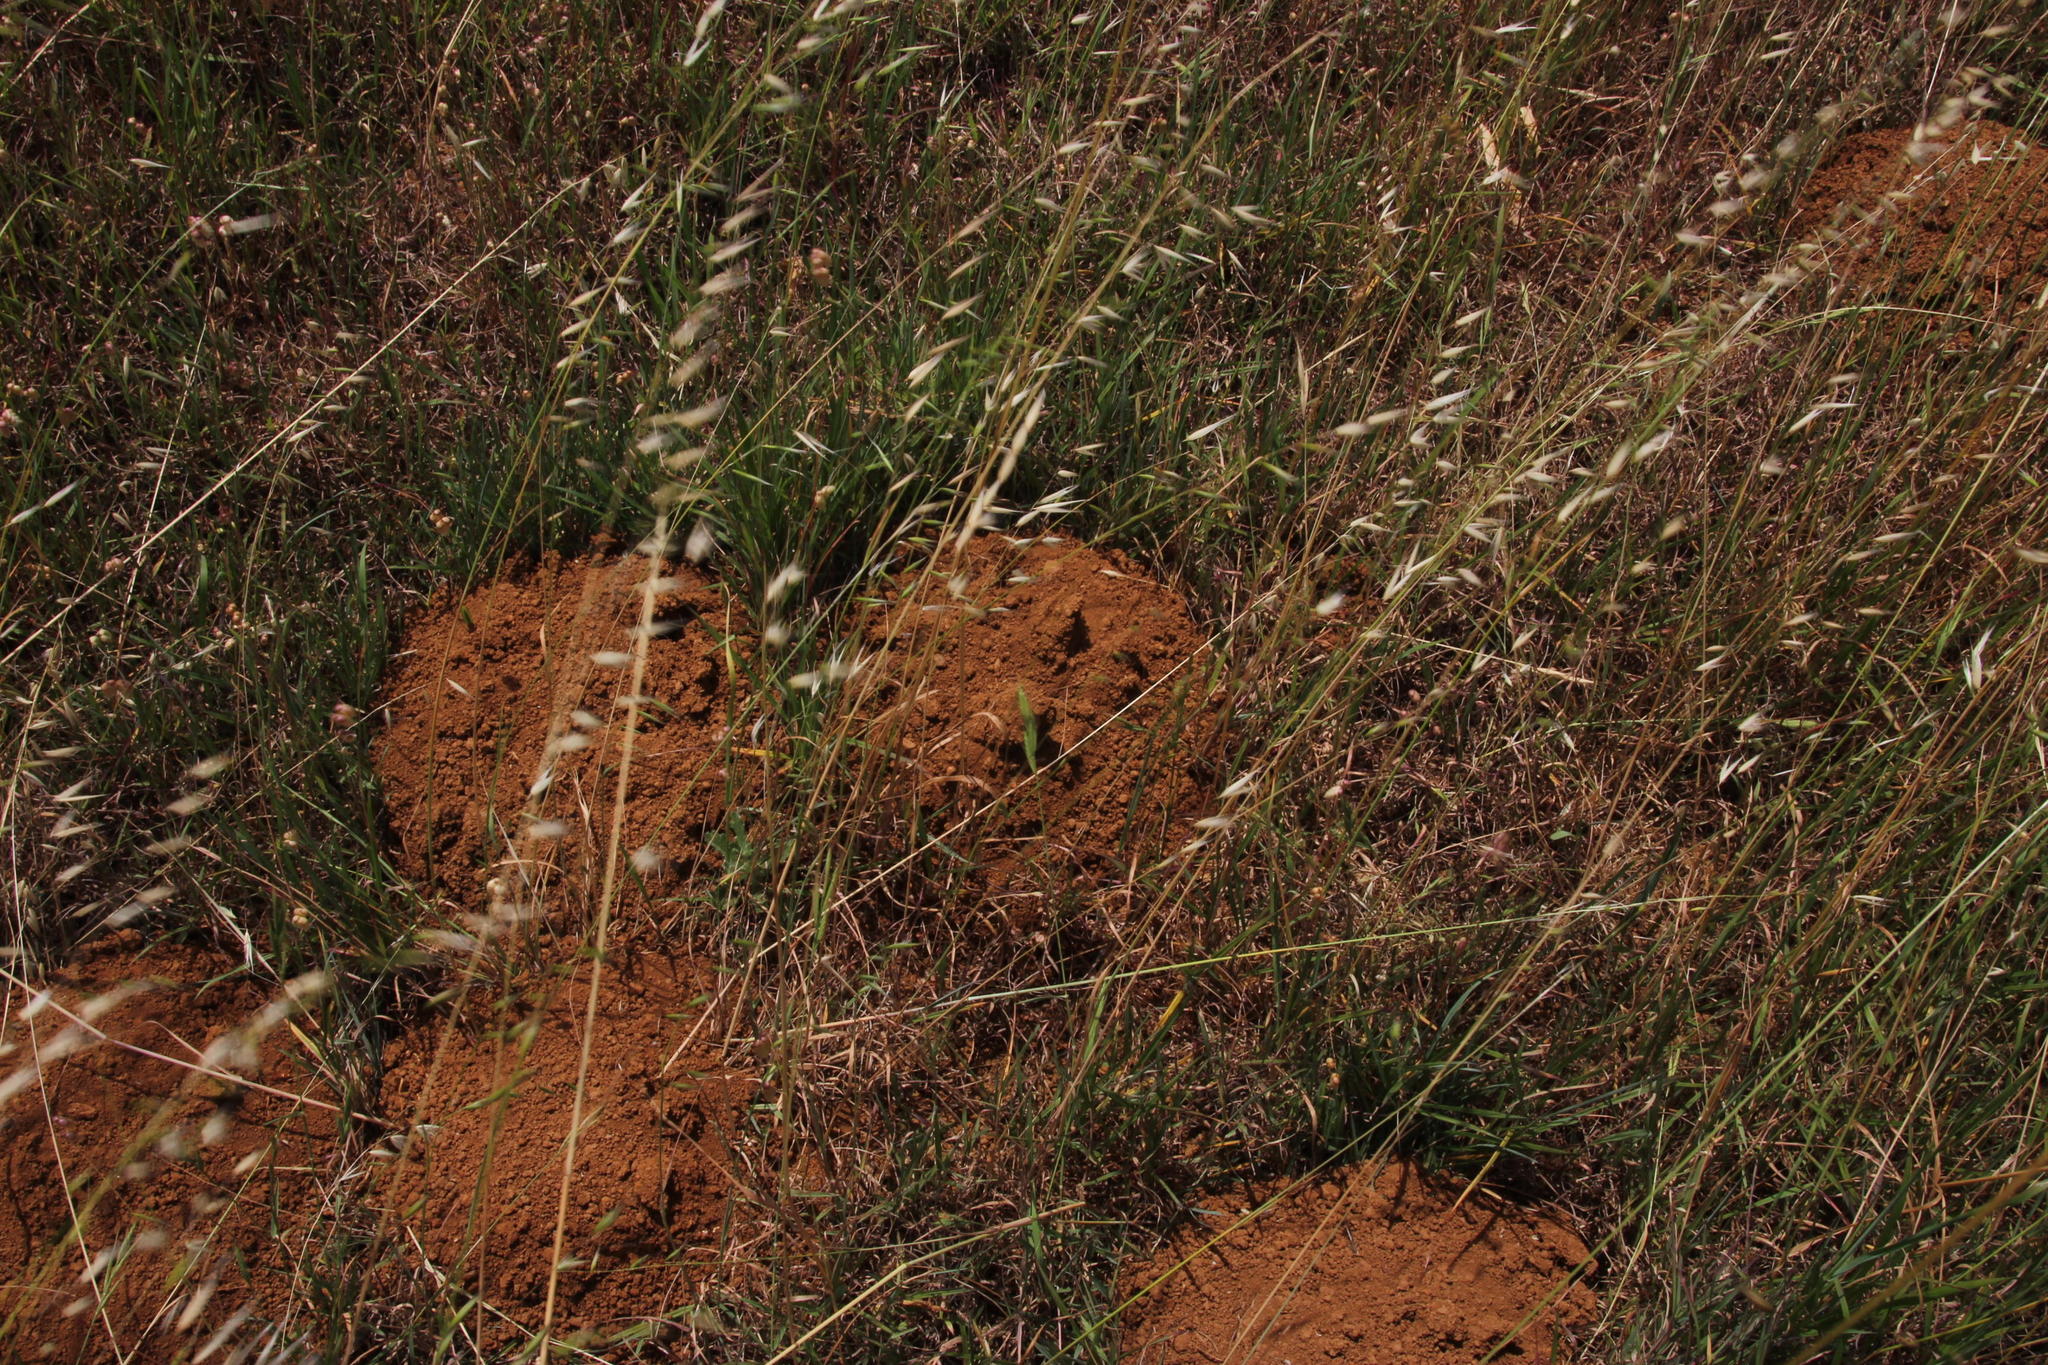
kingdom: Animalia
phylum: Chordata
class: Mammalia
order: Rodentia
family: Bathyergidae
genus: Bathyergus
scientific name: Bathyergus suillus
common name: Cape dune mole rat
